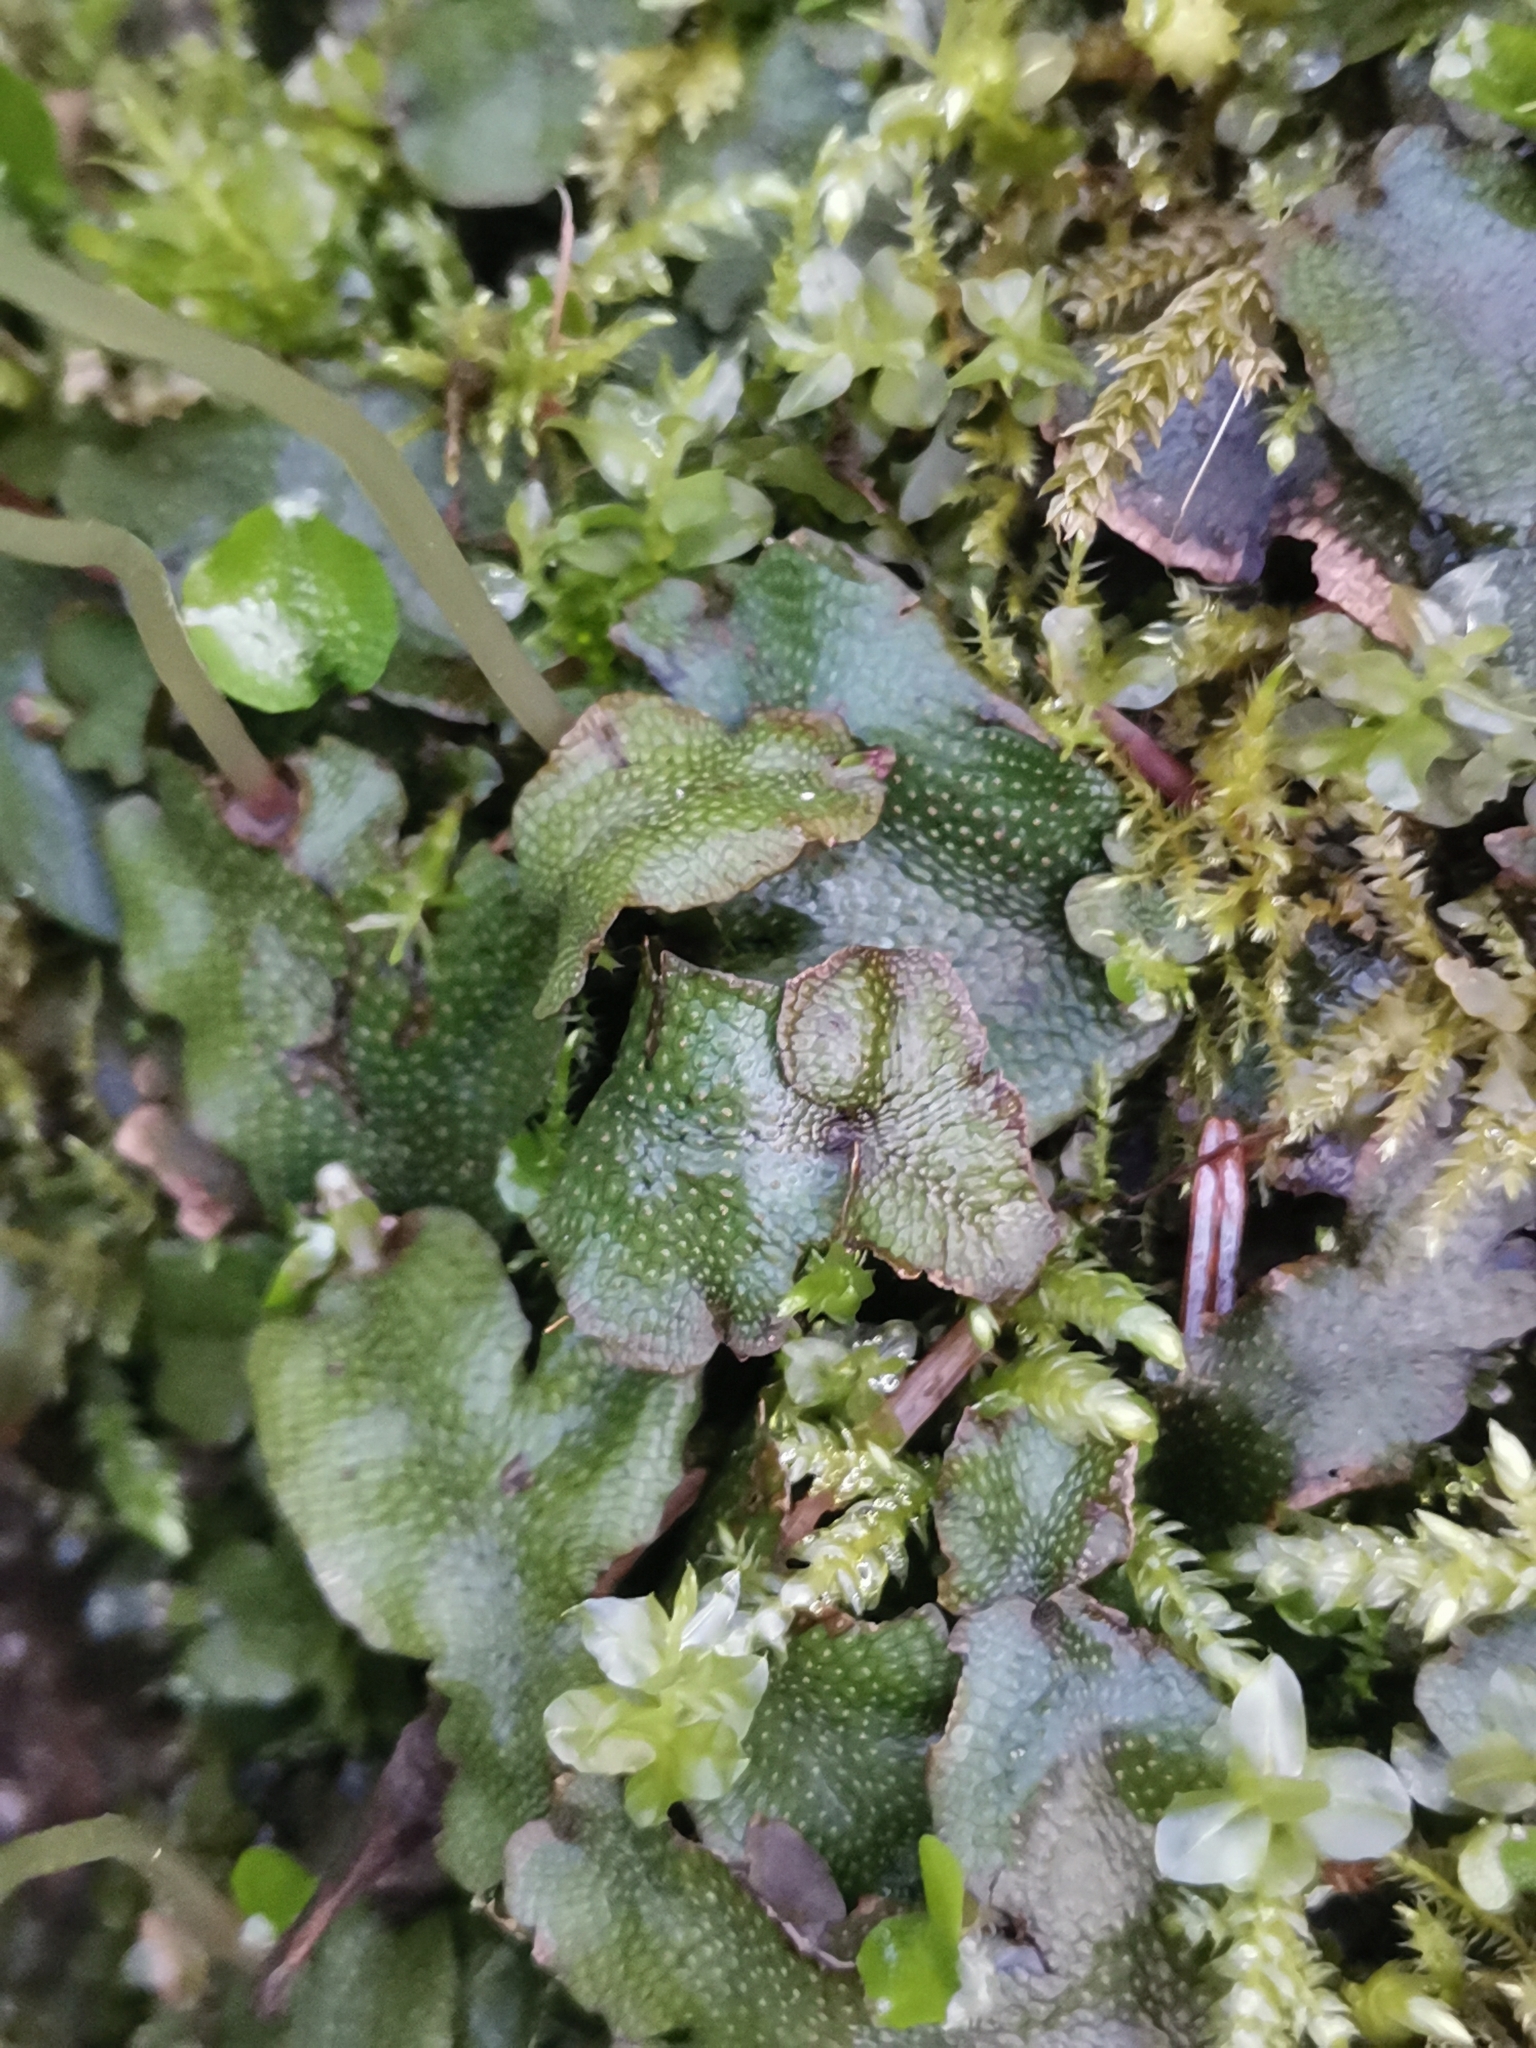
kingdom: Plantae
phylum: Marchantiophyta
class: Marchantiopsida
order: Marchantiales
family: Conocephalaceae
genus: Conocephalum
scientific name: Conocephalum conicum
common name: Great scented liverwort
